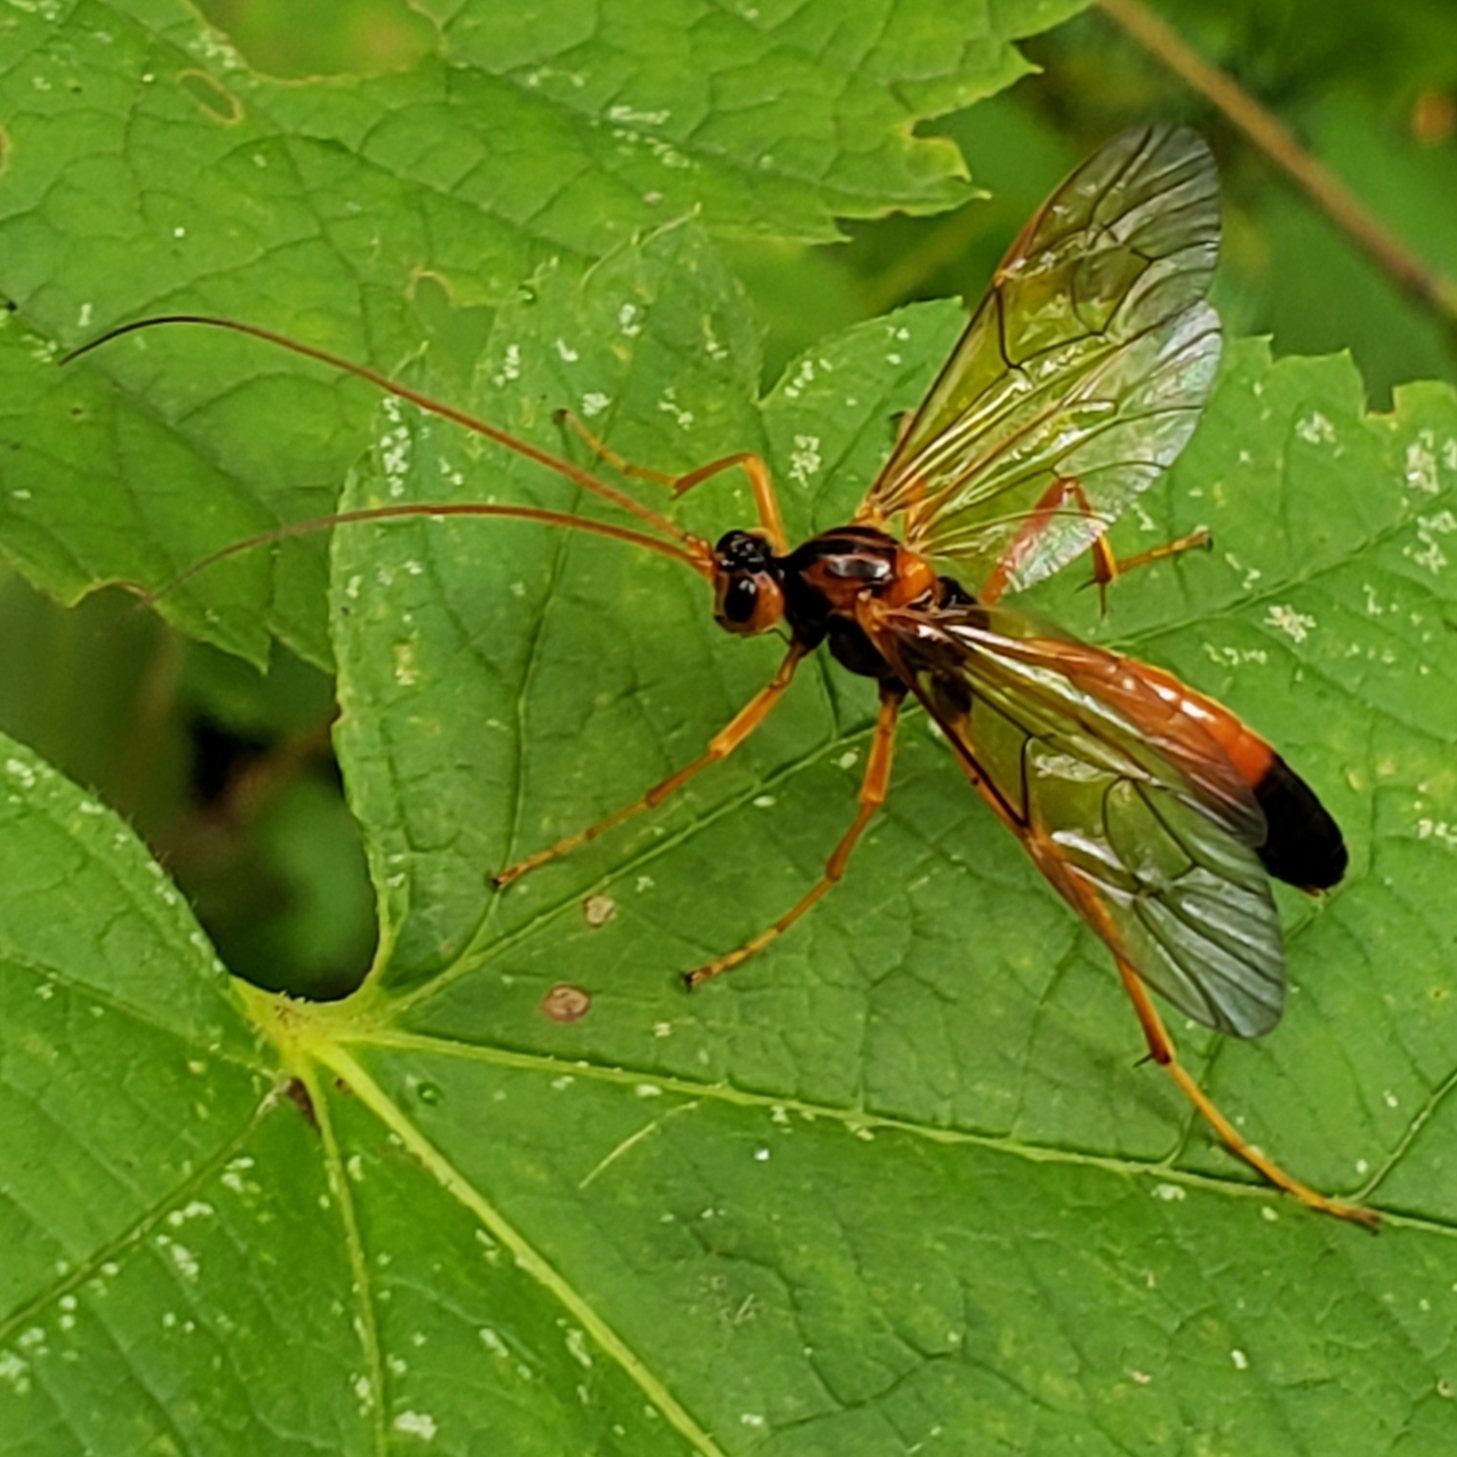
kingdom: Animalia
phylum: Arthropoda
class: Insecta
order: Hymenoptera
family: Ichneumonidae
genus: Opheltes
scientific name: Opheltes glaucopterus
